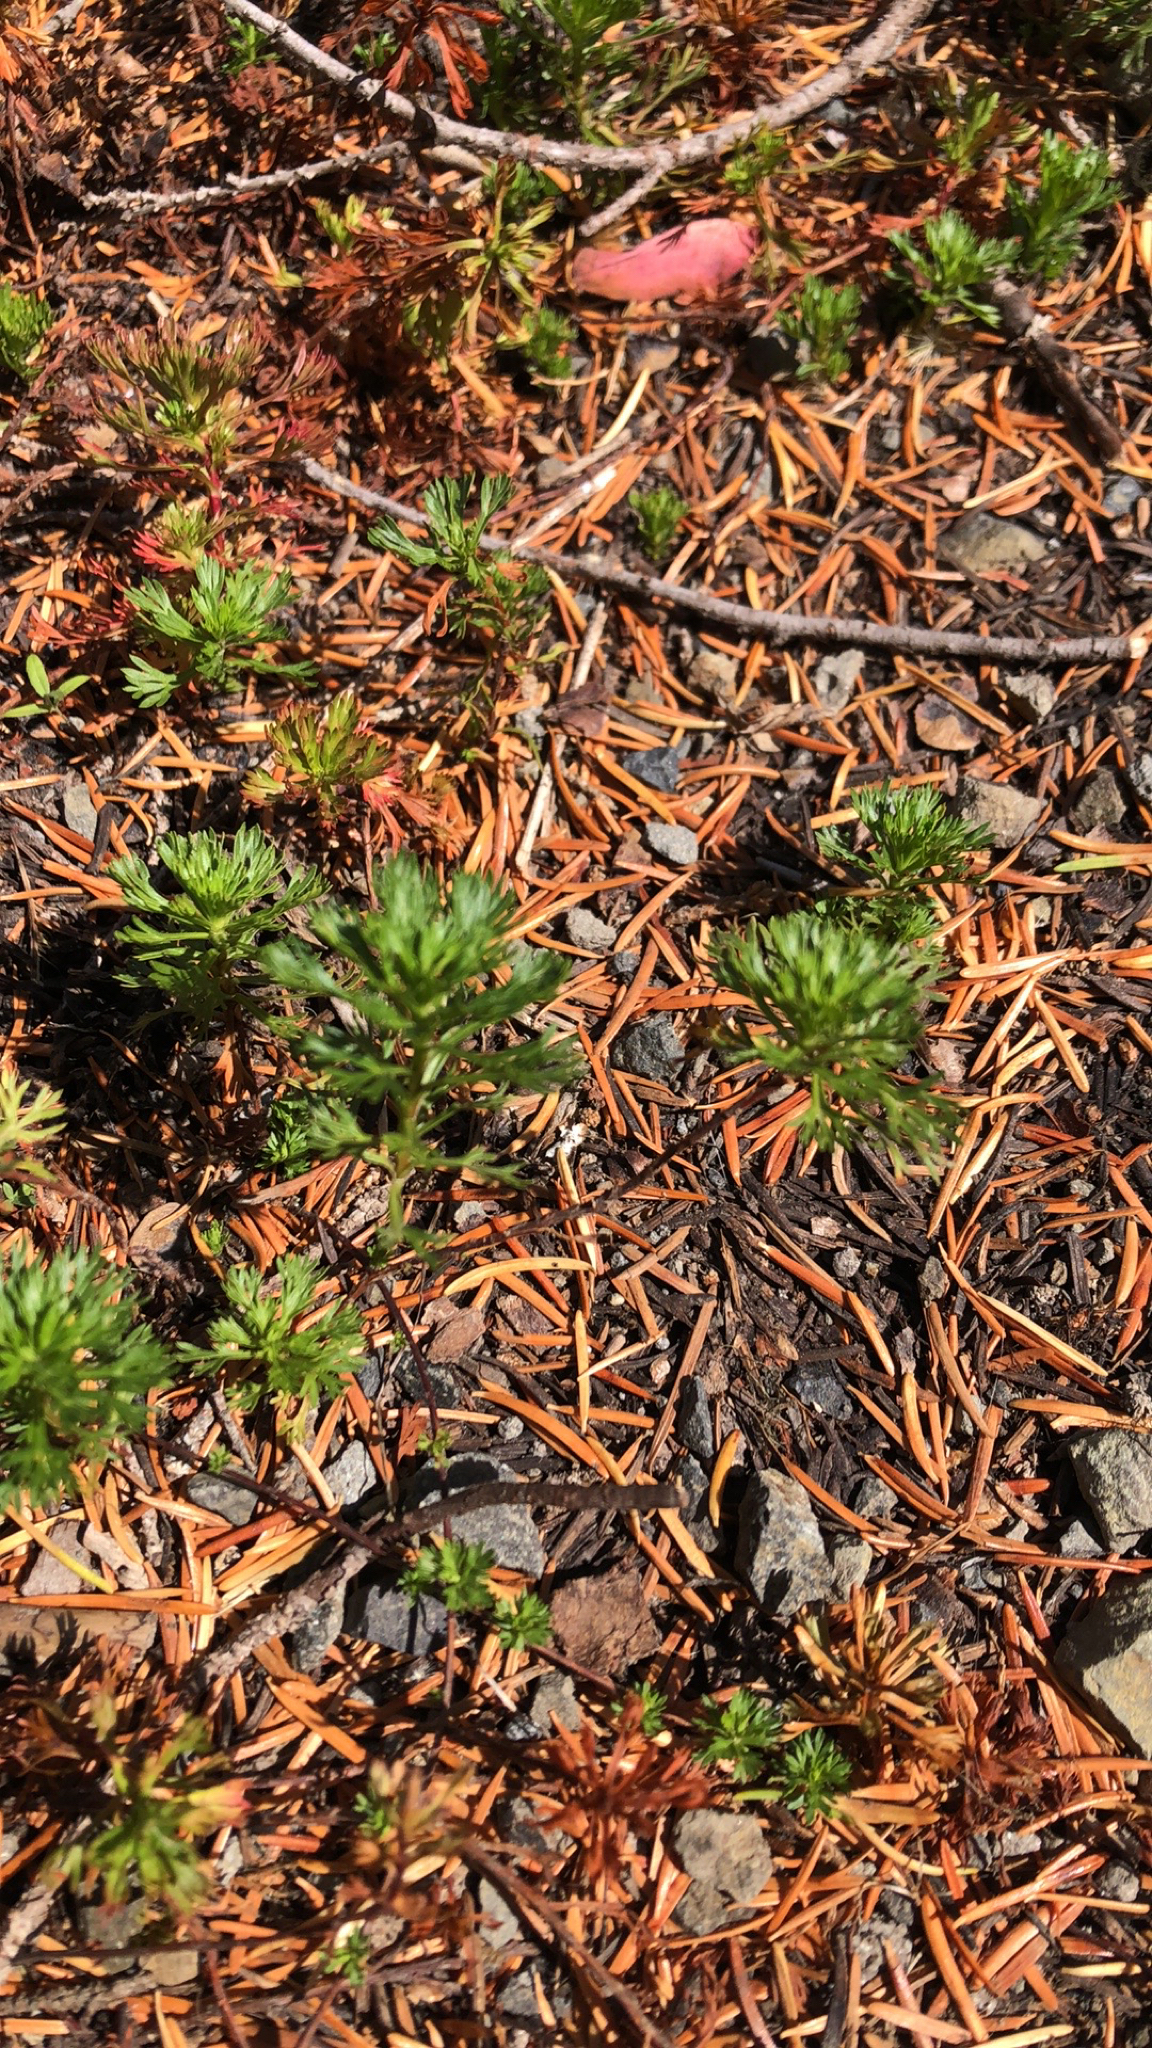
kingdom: Plantae
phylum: Tracheophyta
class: Magnoliopsida
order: Rosales
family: Rosaceae
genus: Luetkea
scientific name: Luetkea pectinata
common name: Partridgefoot
